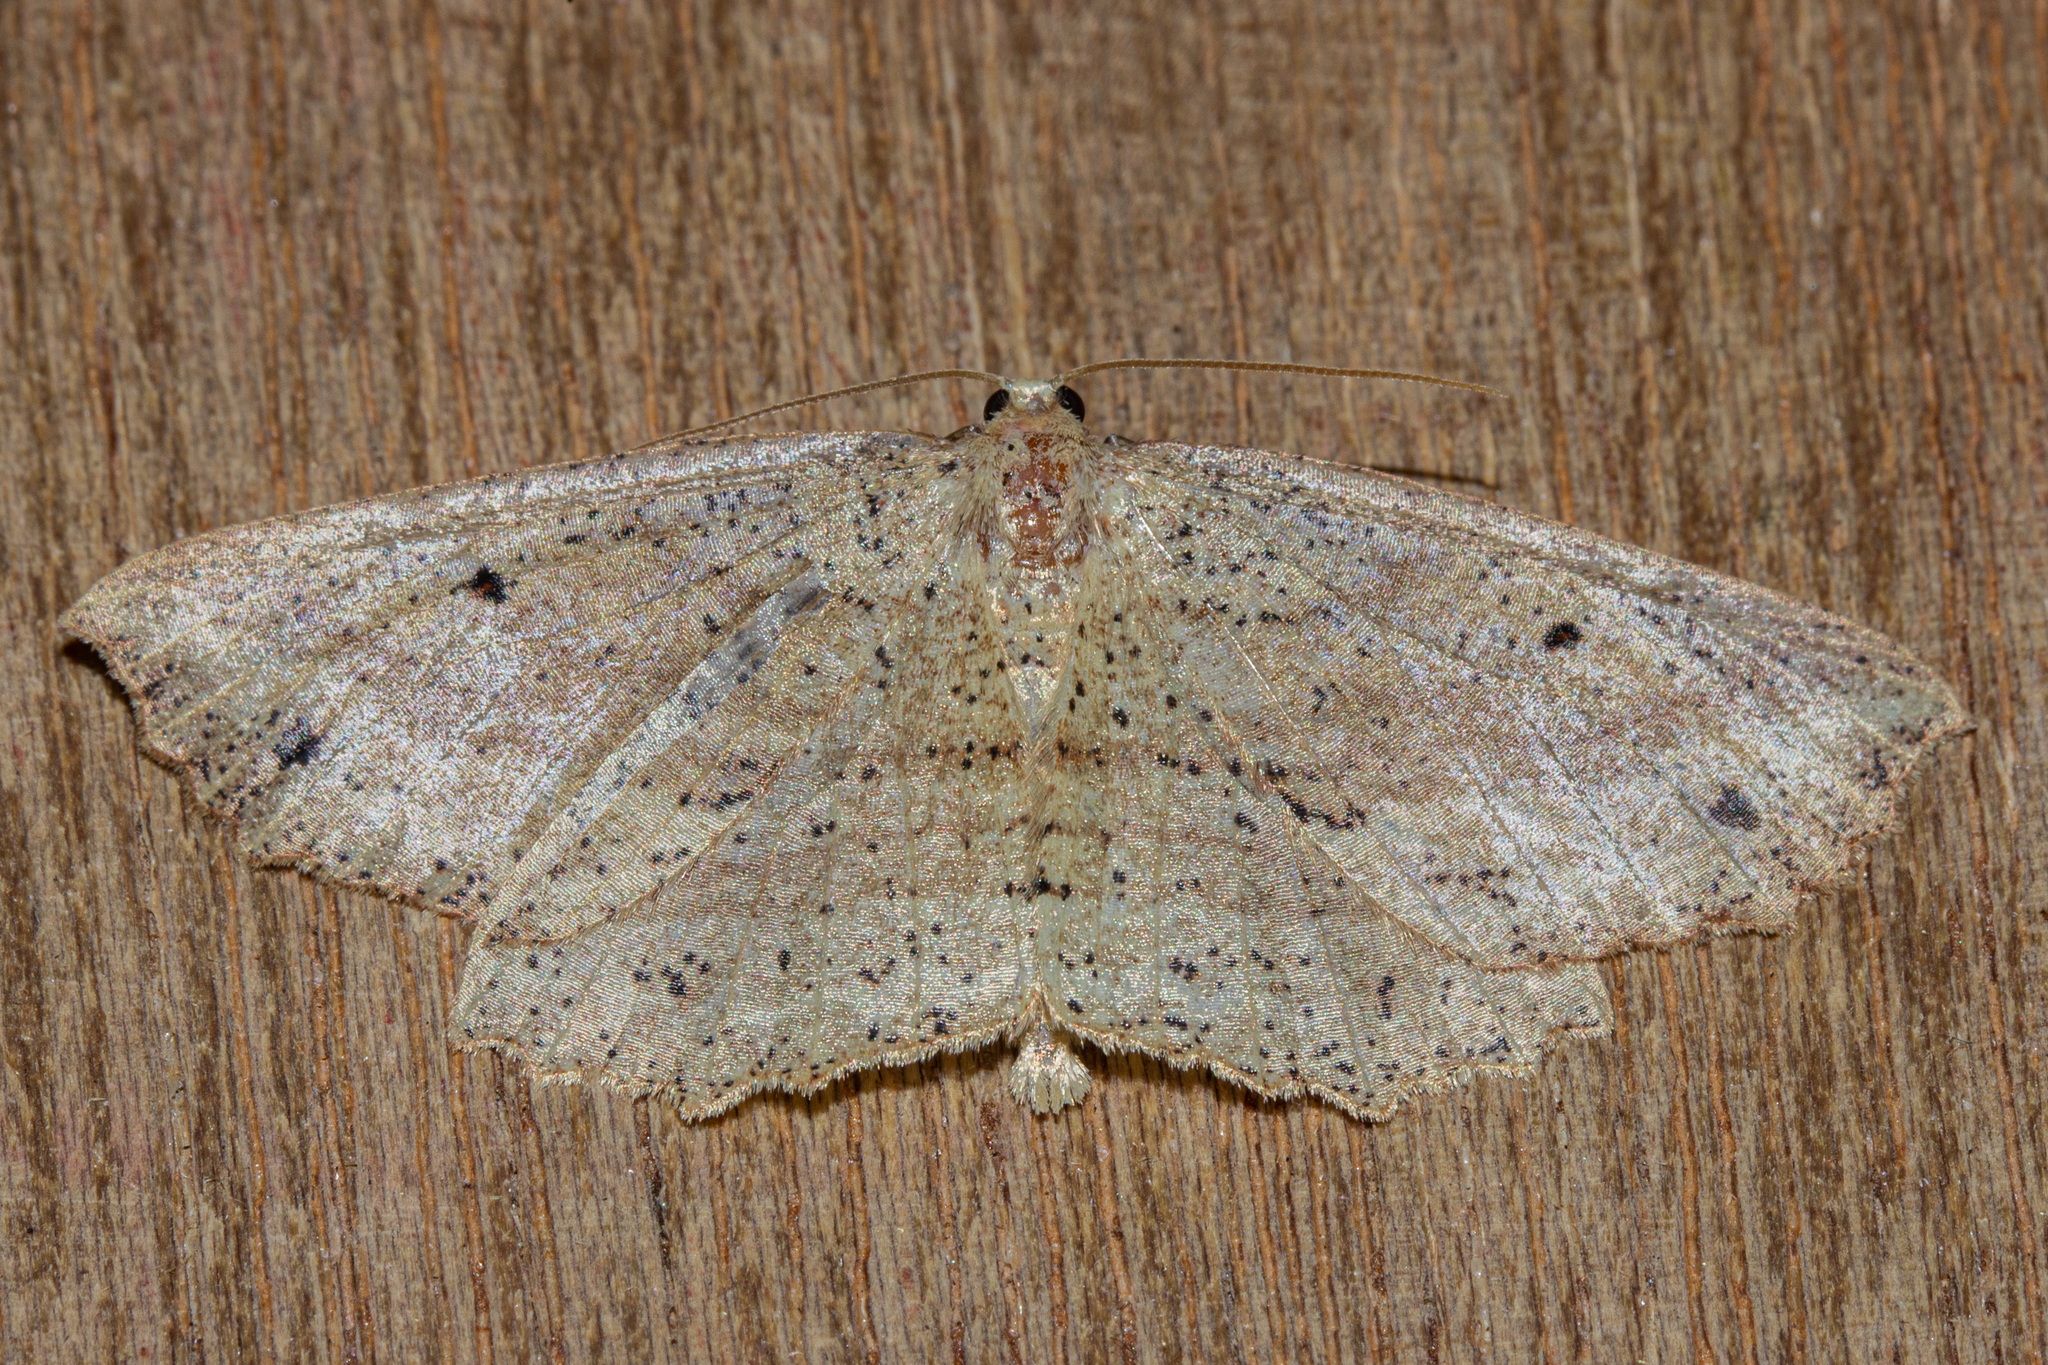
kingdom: Animalia
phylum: Arthropoda
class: Insecta
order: Lepidoptera
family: Geometridae
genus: Xyridacma
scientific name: Xyridacma veronicae
